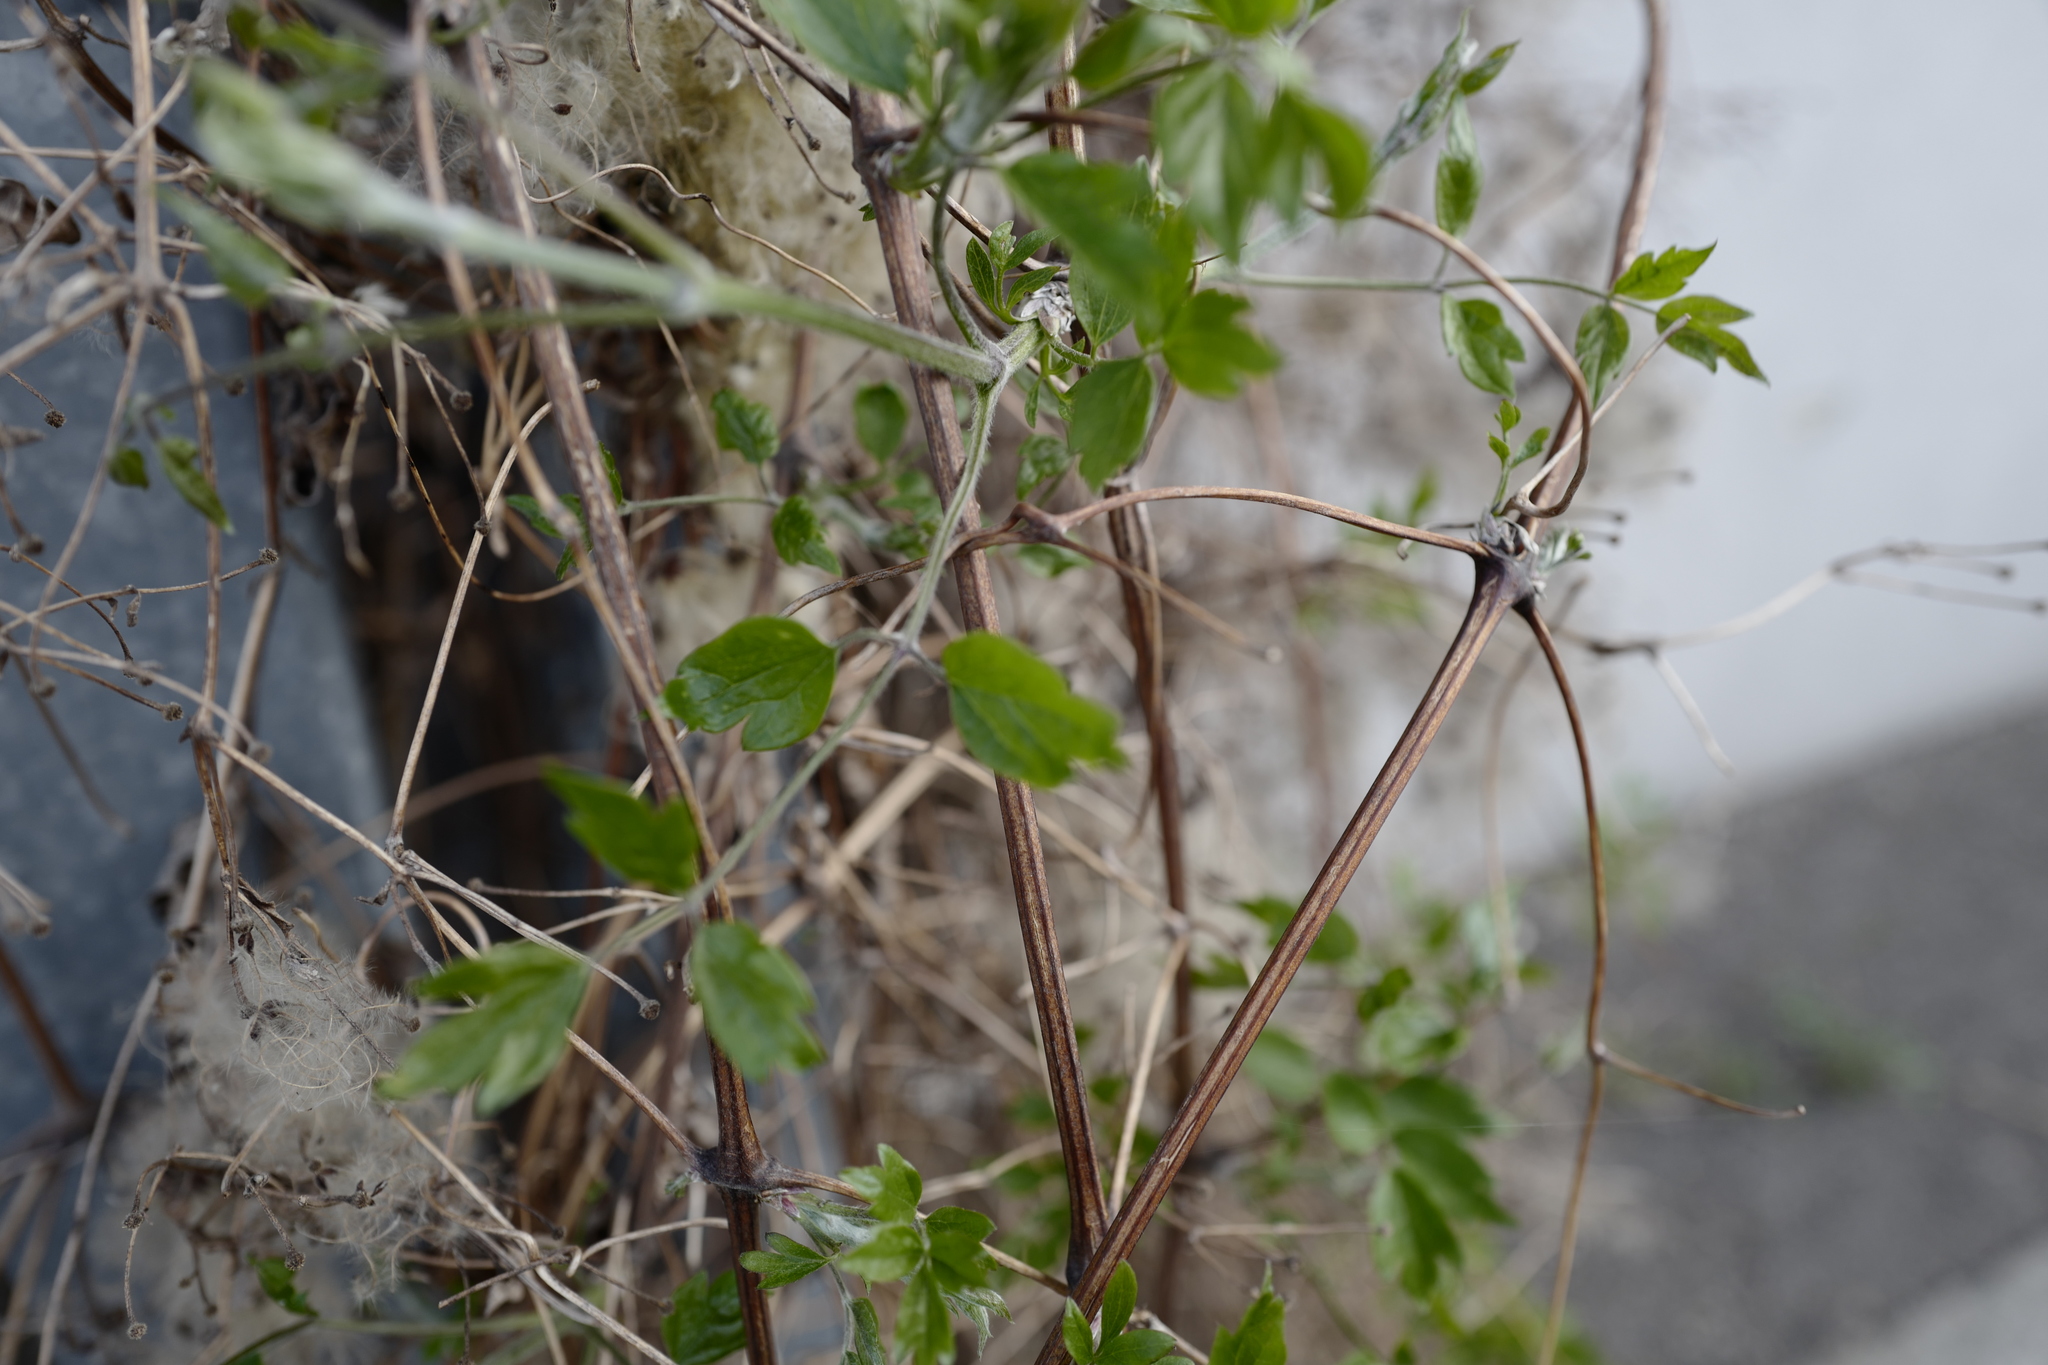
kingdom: Plantae
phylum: Tracheophyta
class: Magnoliopsida
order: Ranunculales
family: Ranunculaceae
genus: Clematis
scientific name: Clematis vitalba
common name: Evergreen clematis
